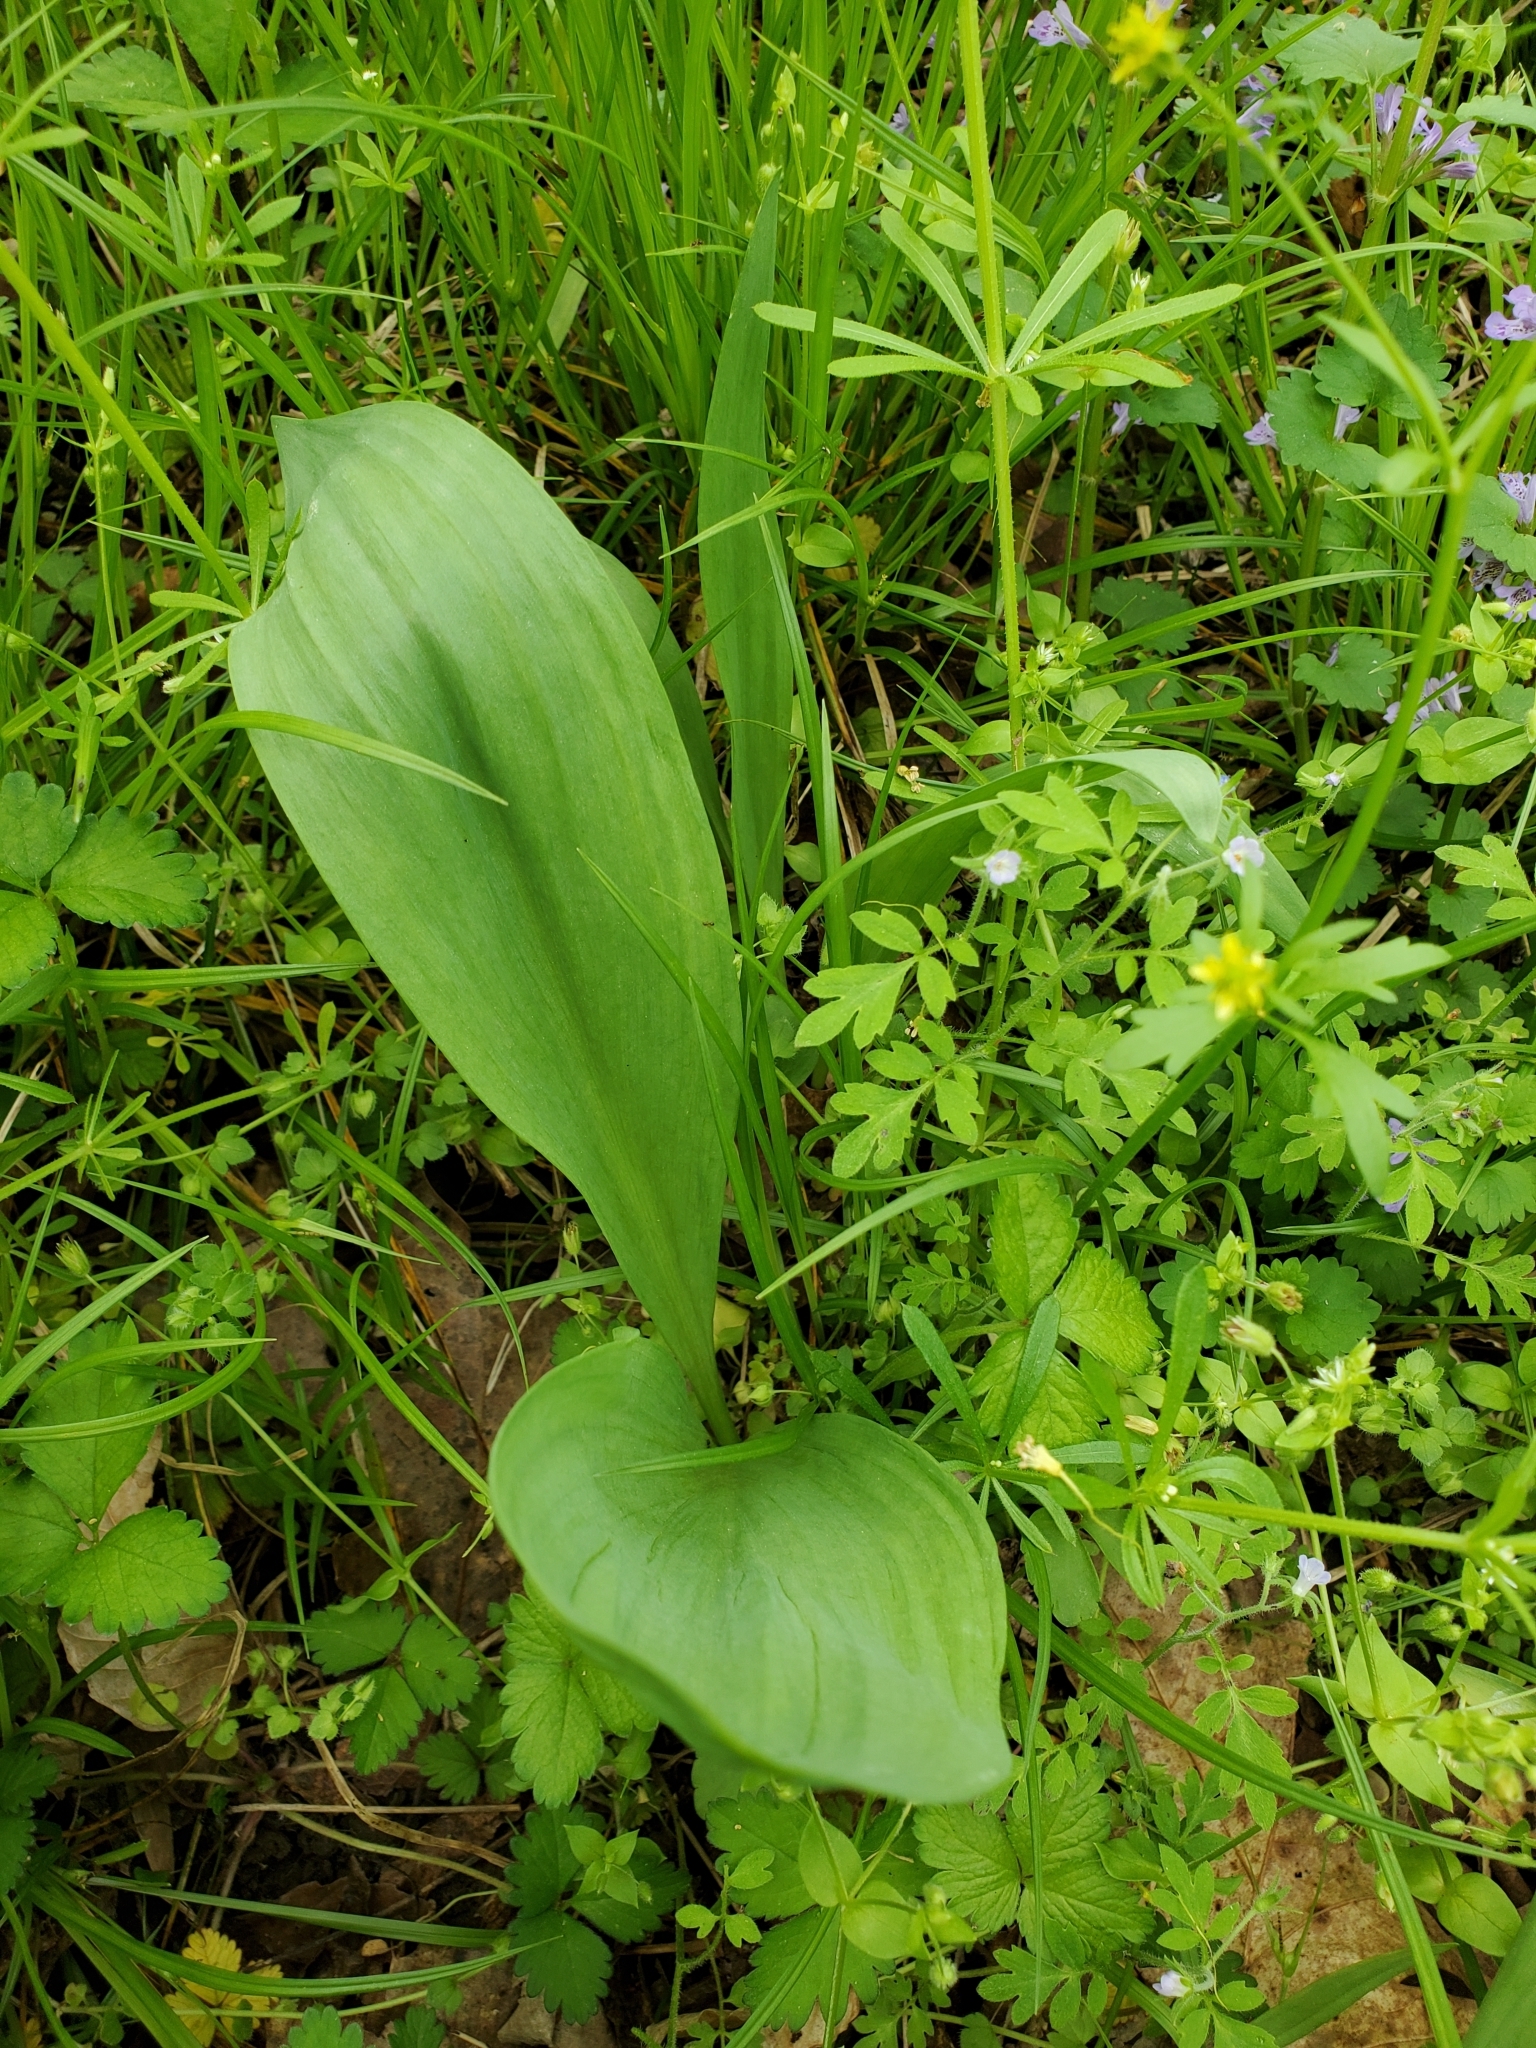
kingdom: Plantae
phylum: Tracheophyta
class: Liliopsida
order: Asparagales
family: Amaryllidaceae
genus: Allium
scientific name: Allium tricoccum
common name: Ramp
